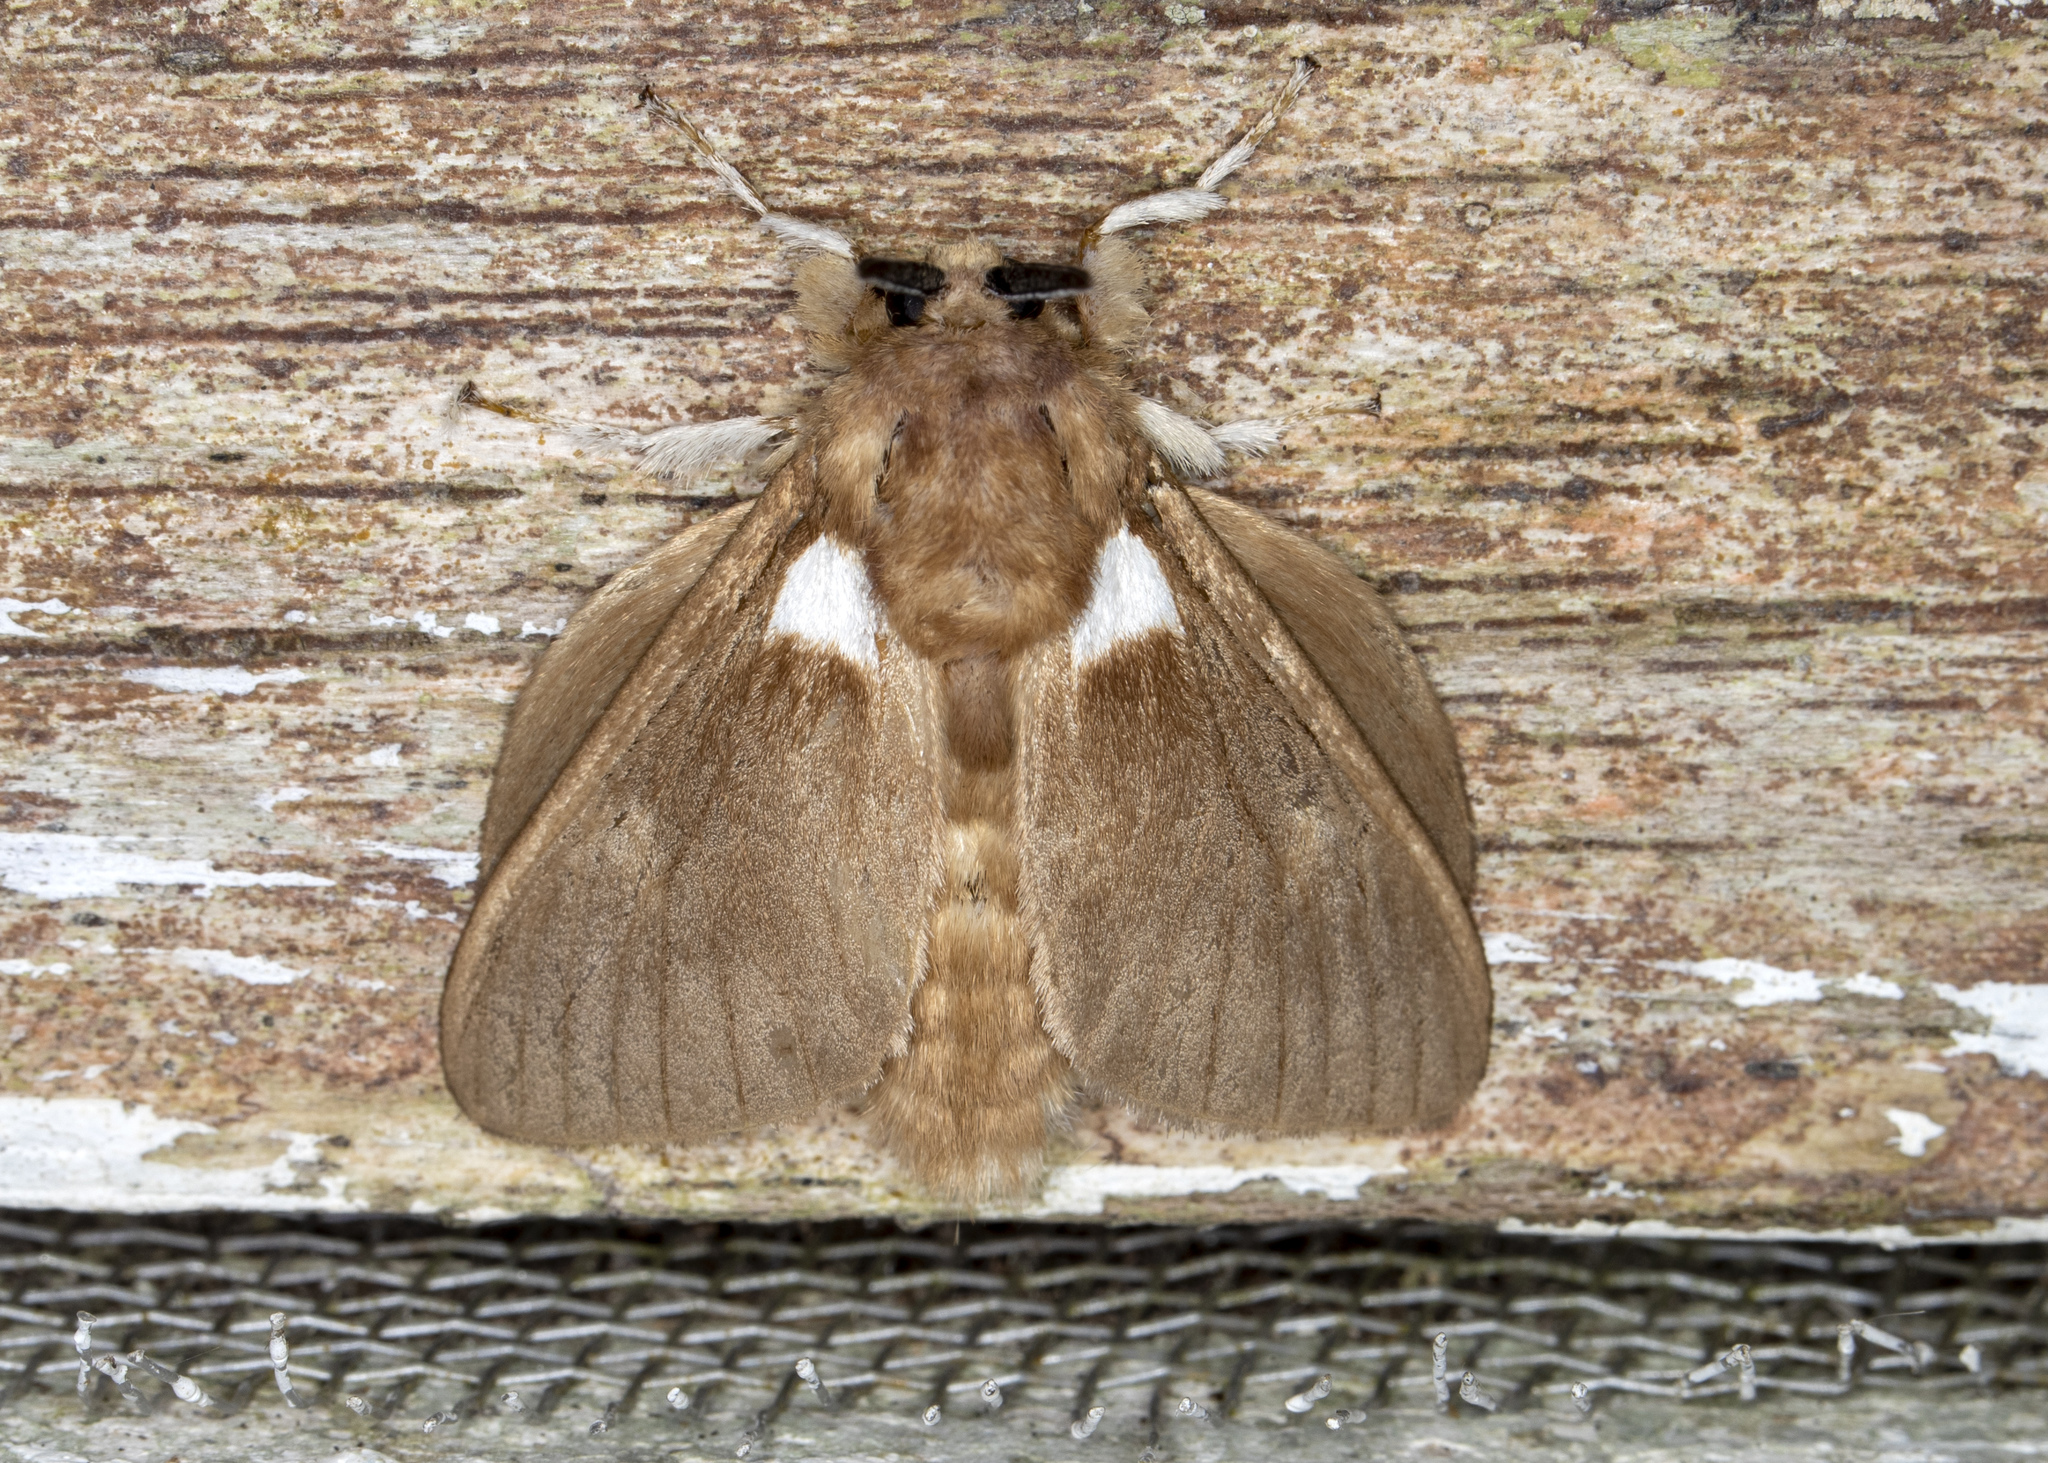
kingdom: Animalia
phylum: Arthropoda
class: Insecta
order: Lepidoptera
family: Megalopygidae
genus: Megalopyge
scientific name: Megalopyge
